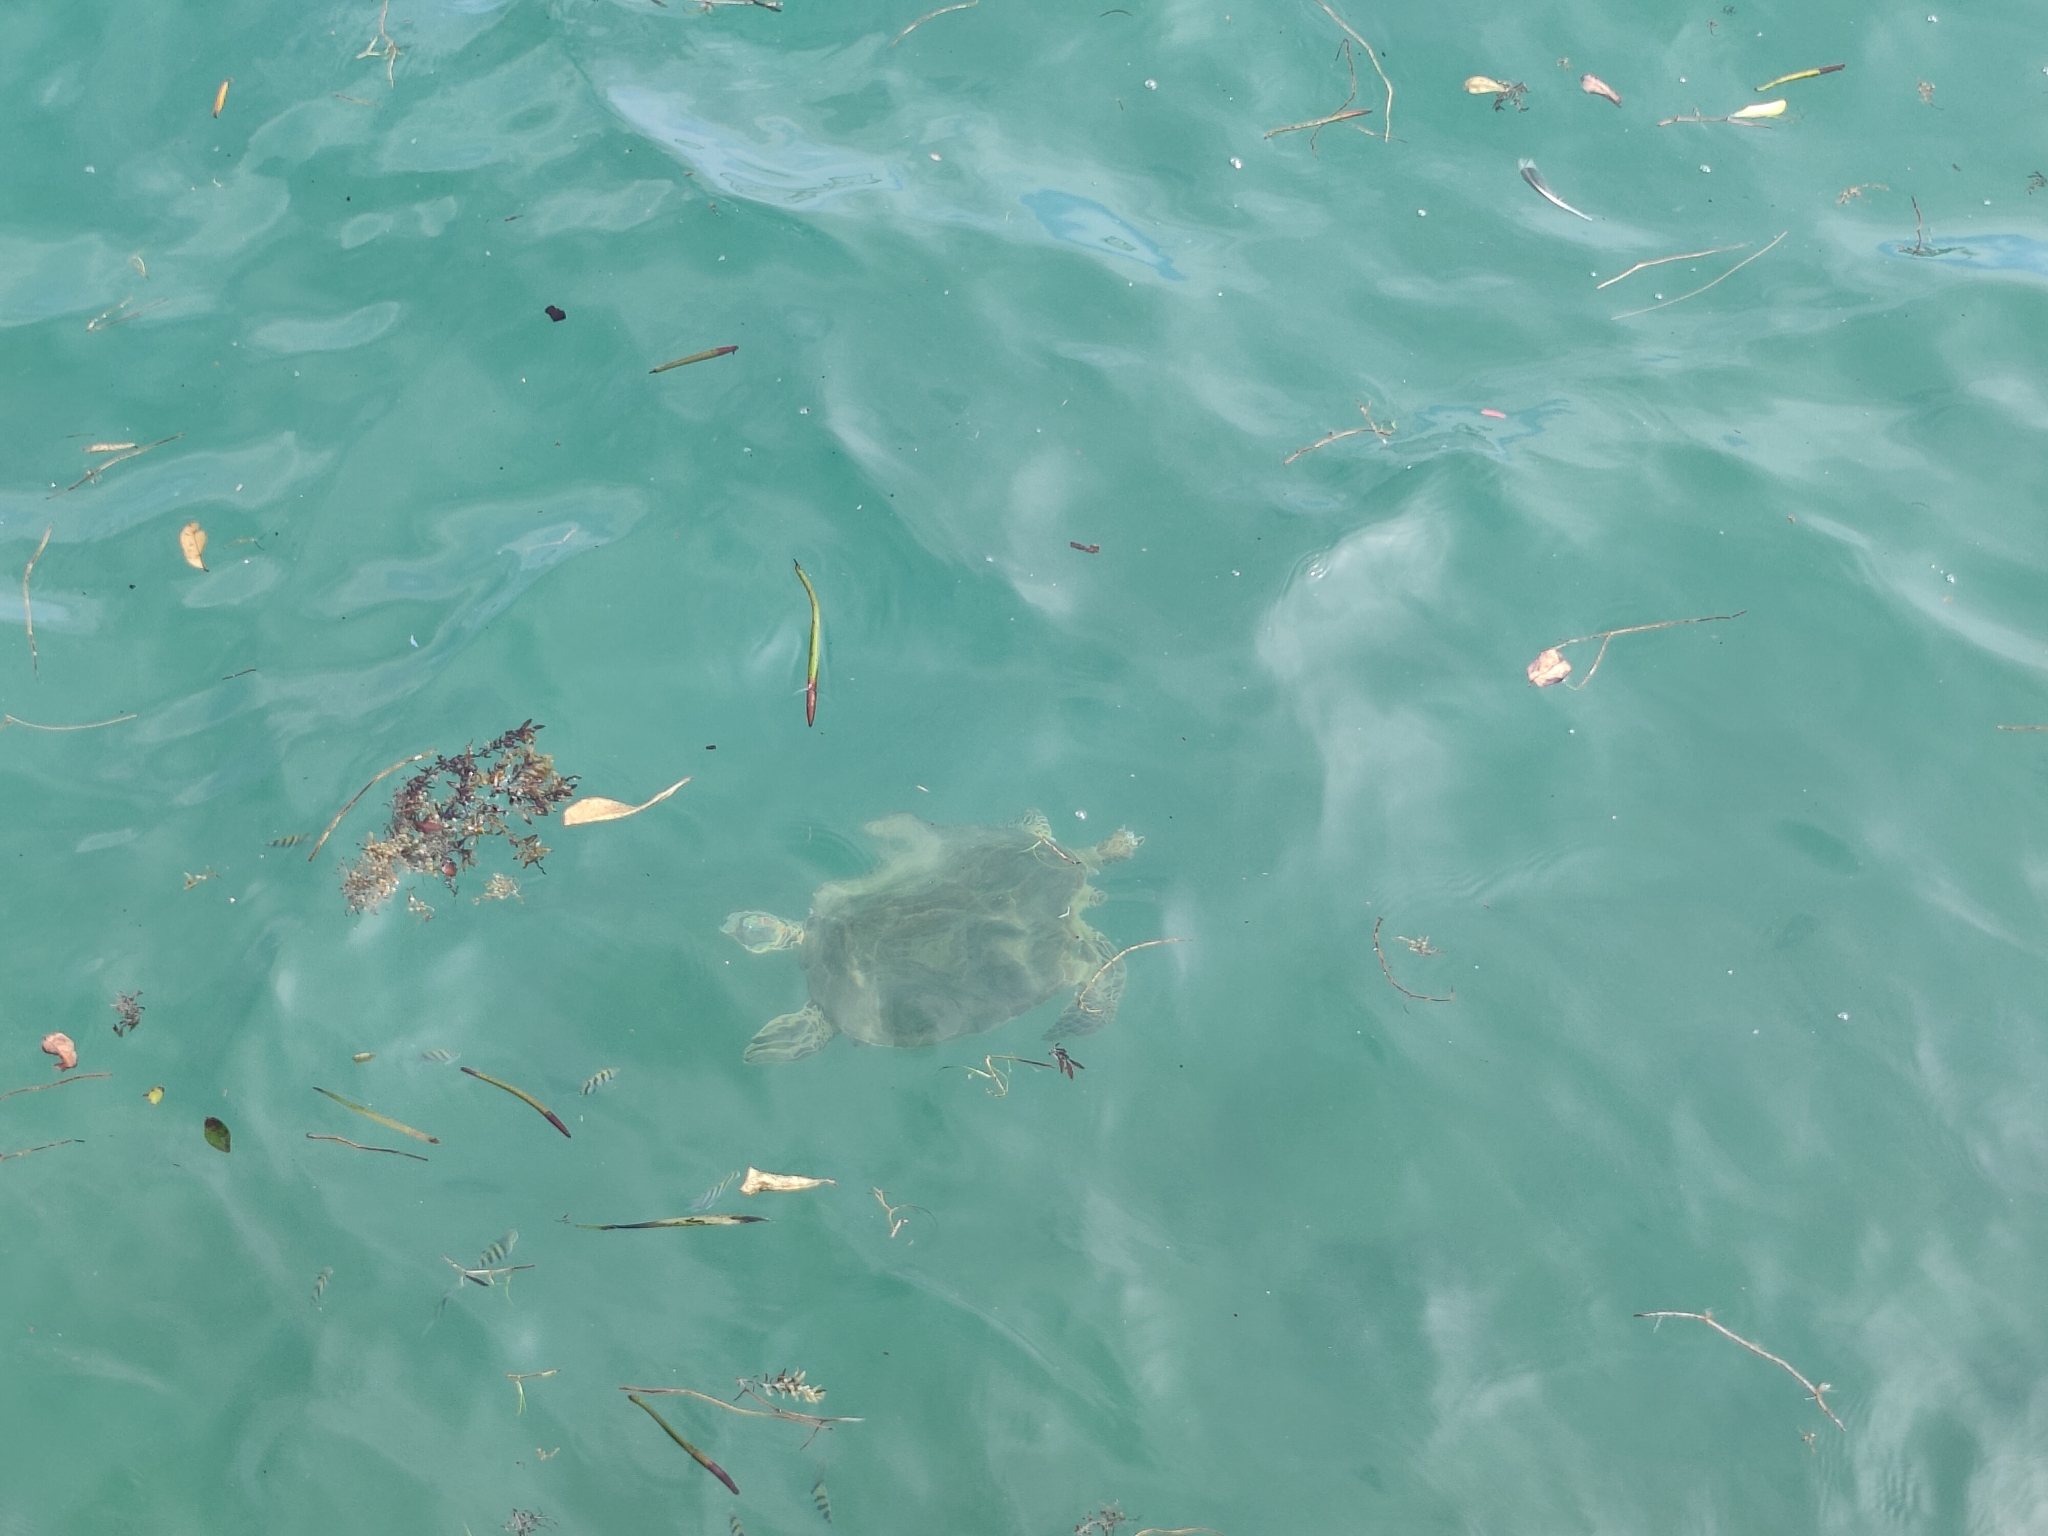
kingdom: Animalia
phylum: Chordata
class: Testudines
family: Cheloniidae
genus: Chelonia
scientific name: Chelonia mydas
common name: Green turtle
